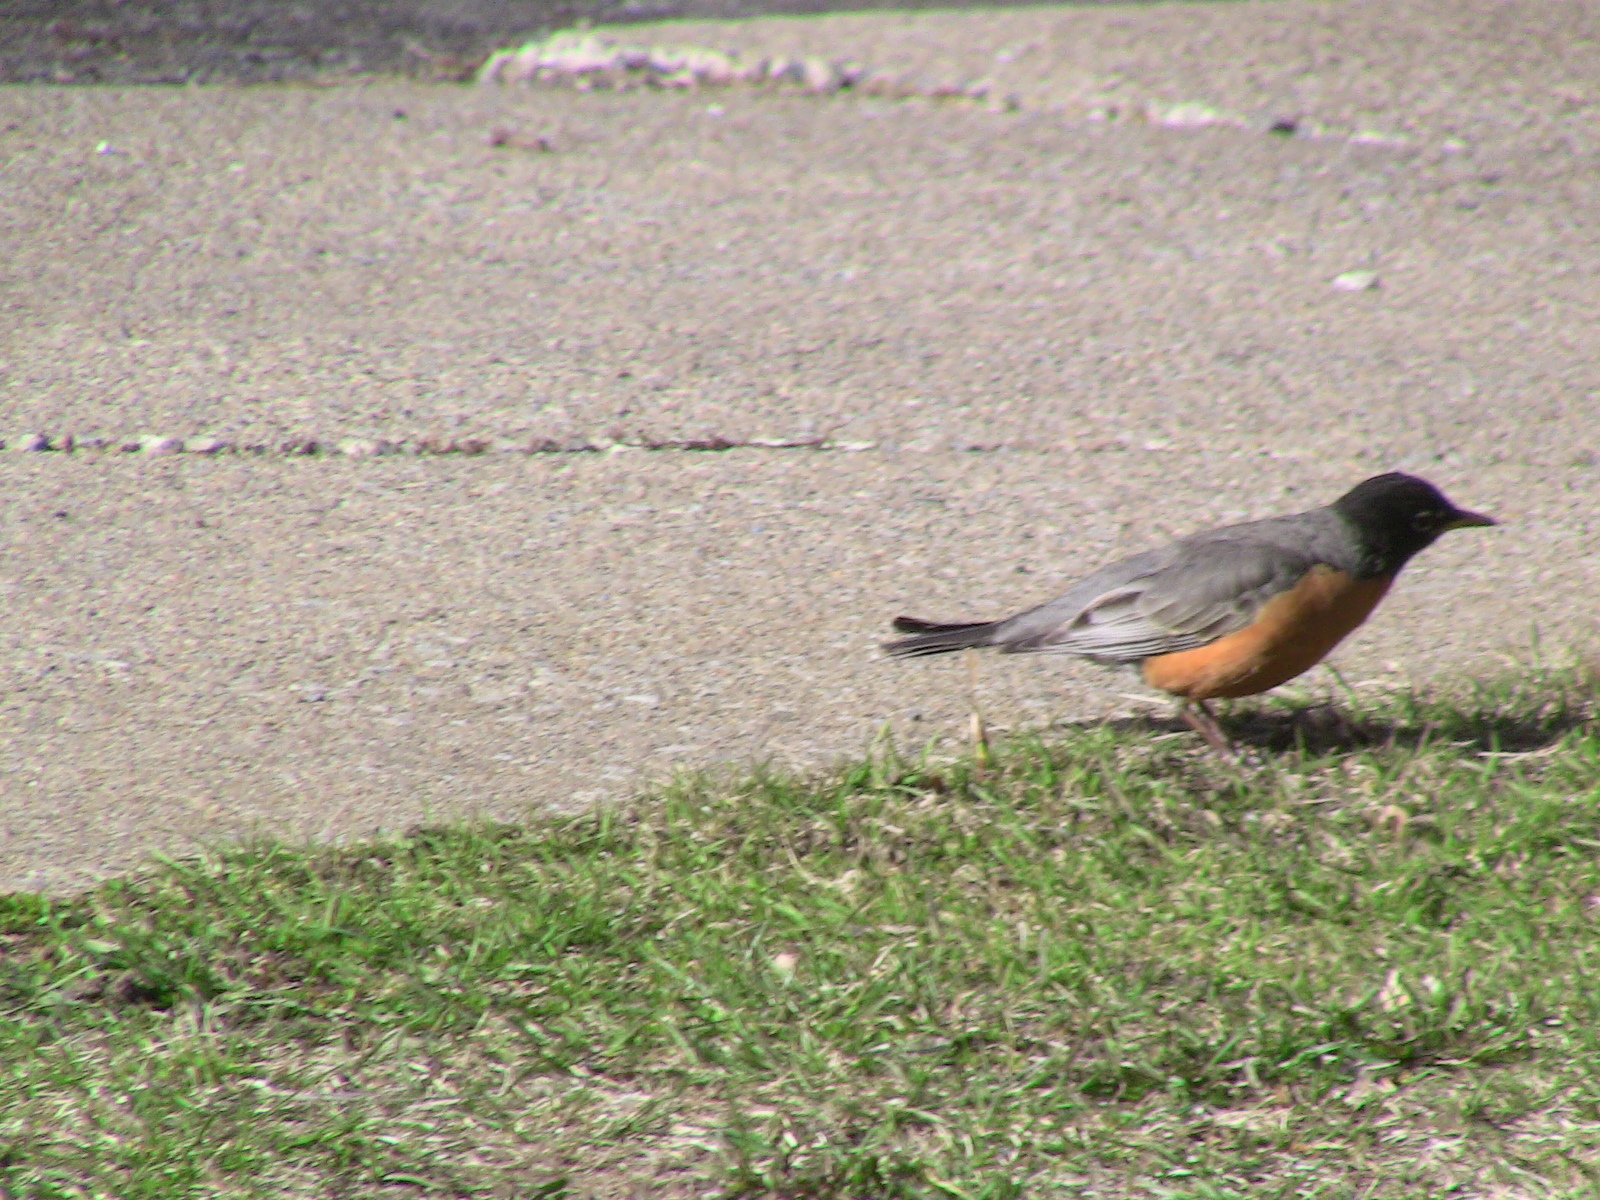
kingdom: Animalia
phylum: Chordata
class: Aves
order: Passeriformes
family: Turdidae
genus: Turdus
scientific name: Turdus migratorius
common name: American robin
